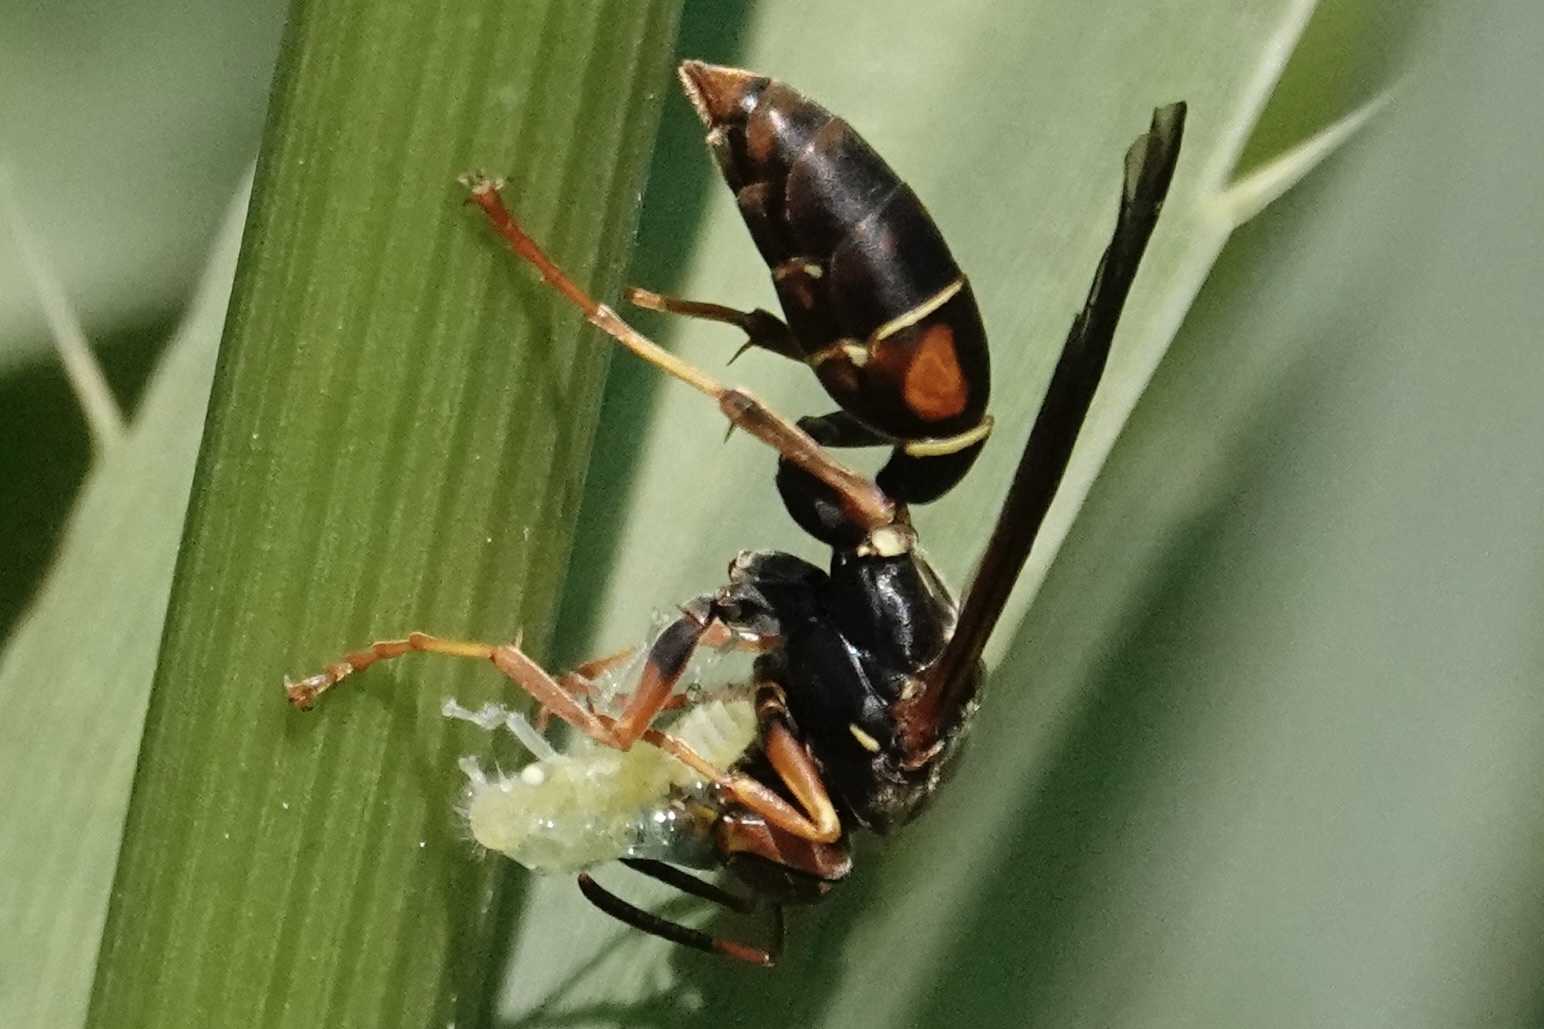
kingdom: Animalia
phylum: Arthropoda
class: Insecta
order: Hymenoptera
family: Eumenidae
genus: Polistes
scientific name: Polistes fuscatus
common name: Dark paper wasp
